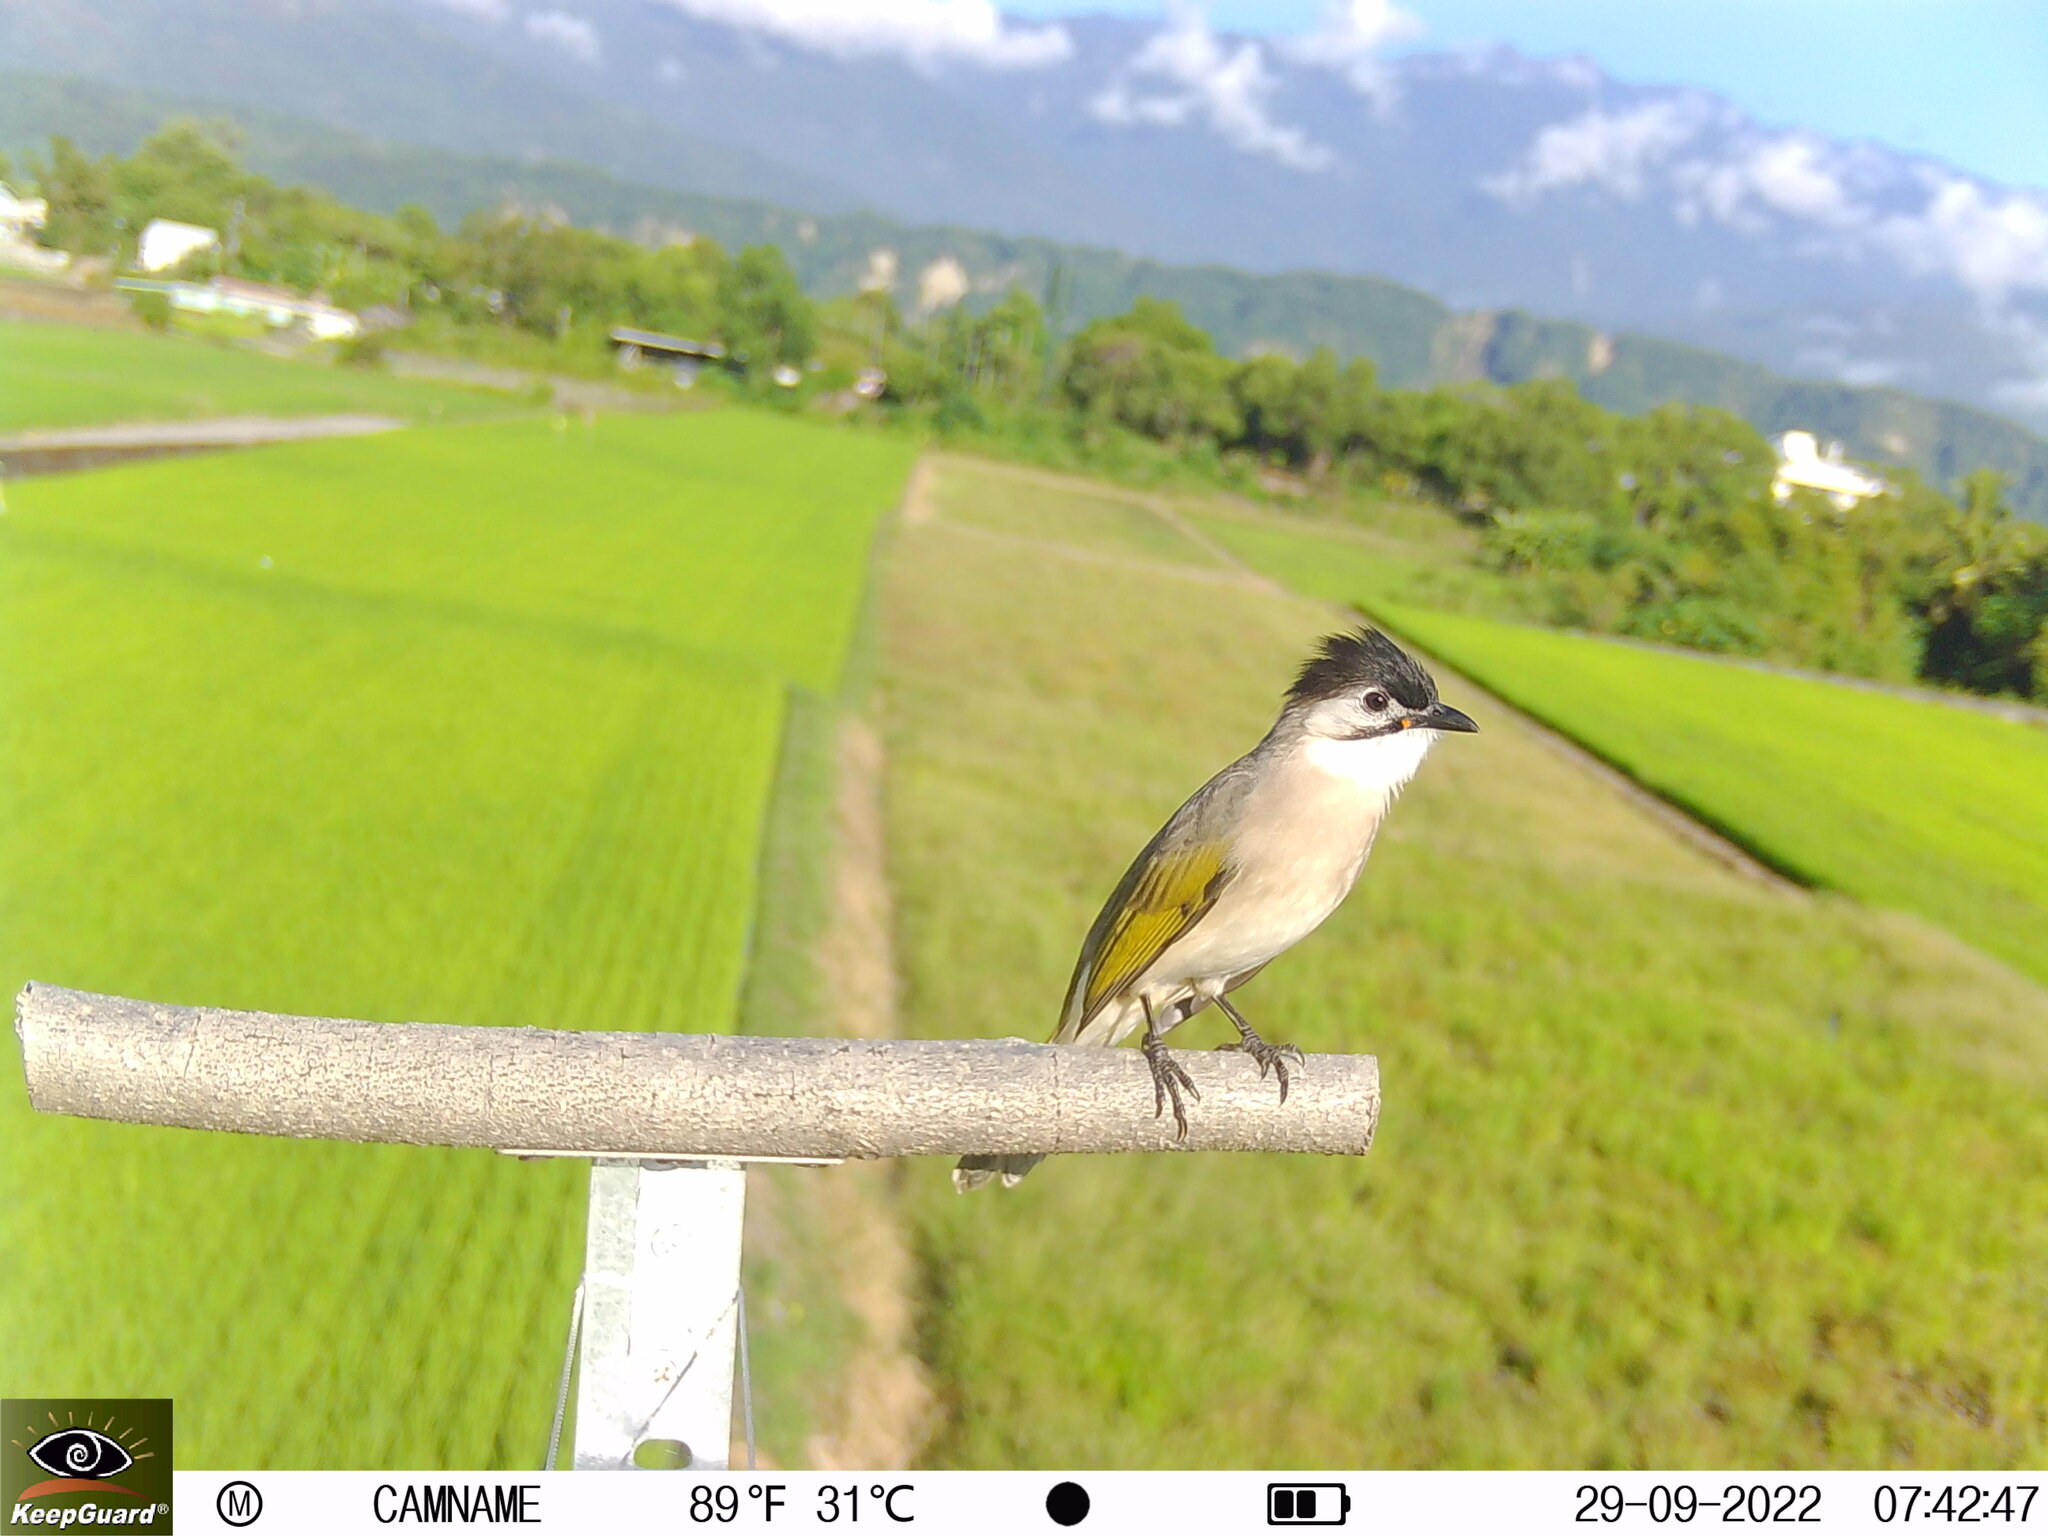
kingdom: Animalia
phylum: Chordata
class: Aves
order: Passeriformes
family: Pycnonotidae
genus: Pycnonotus
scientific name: Pycnonotus taivanus
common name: Styan's bulbul
